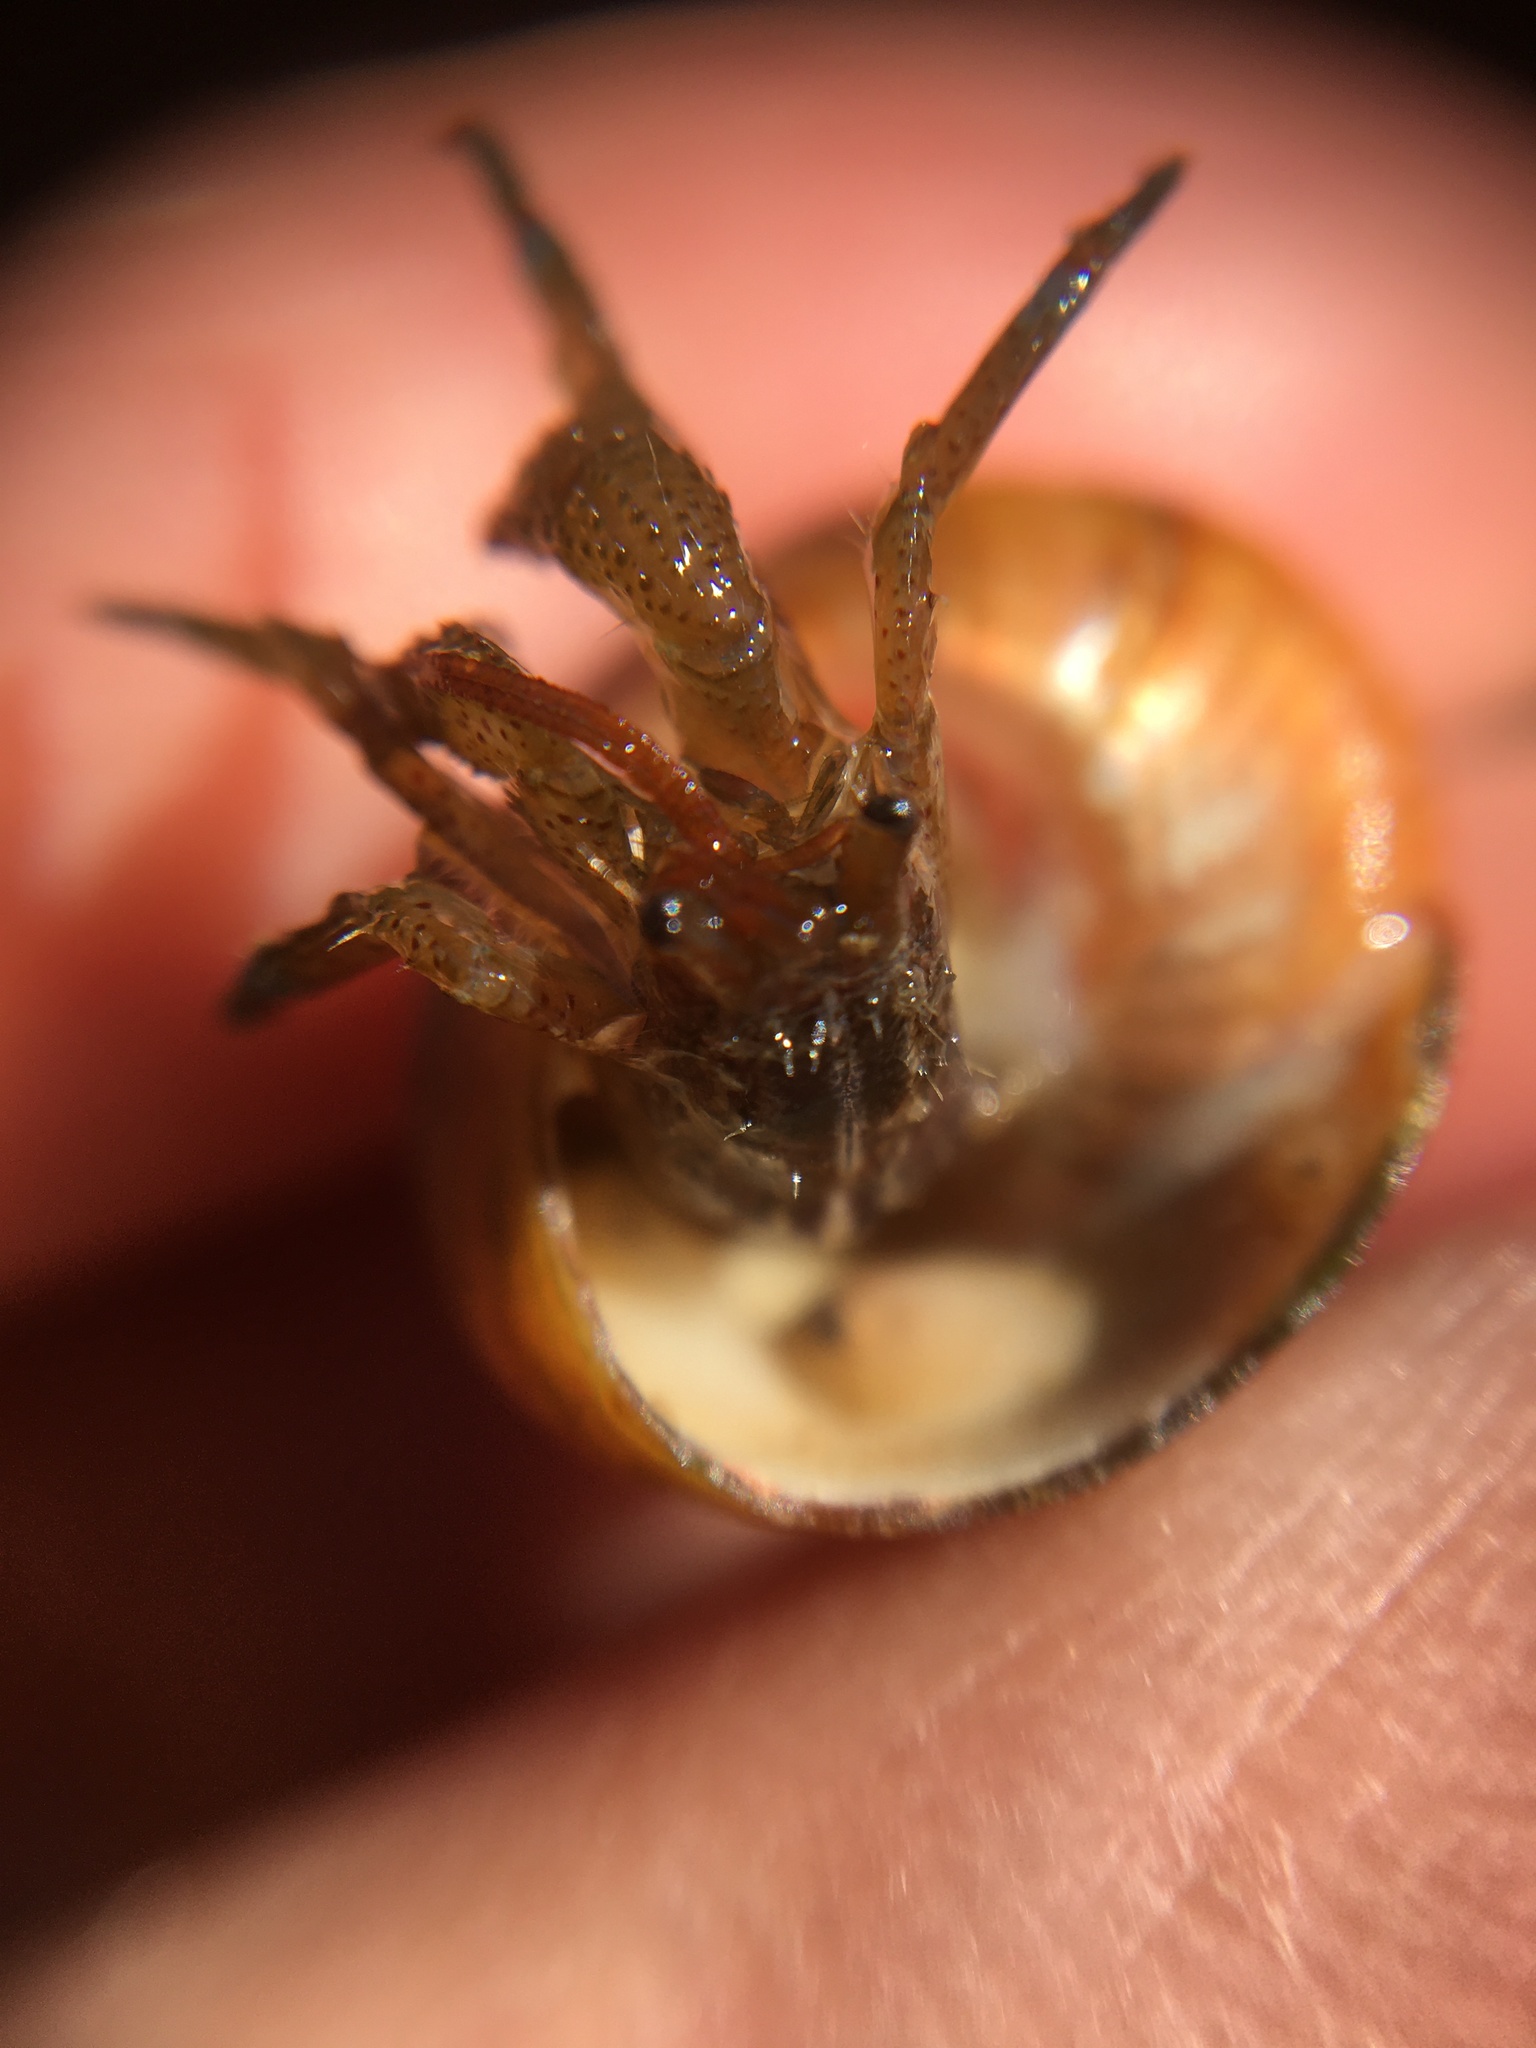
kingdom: Animalia
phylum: Arthropoda
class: Malacostraca
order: Decapoda
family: Paguridae
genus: Pagurus
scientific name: Pagurus samuelis
